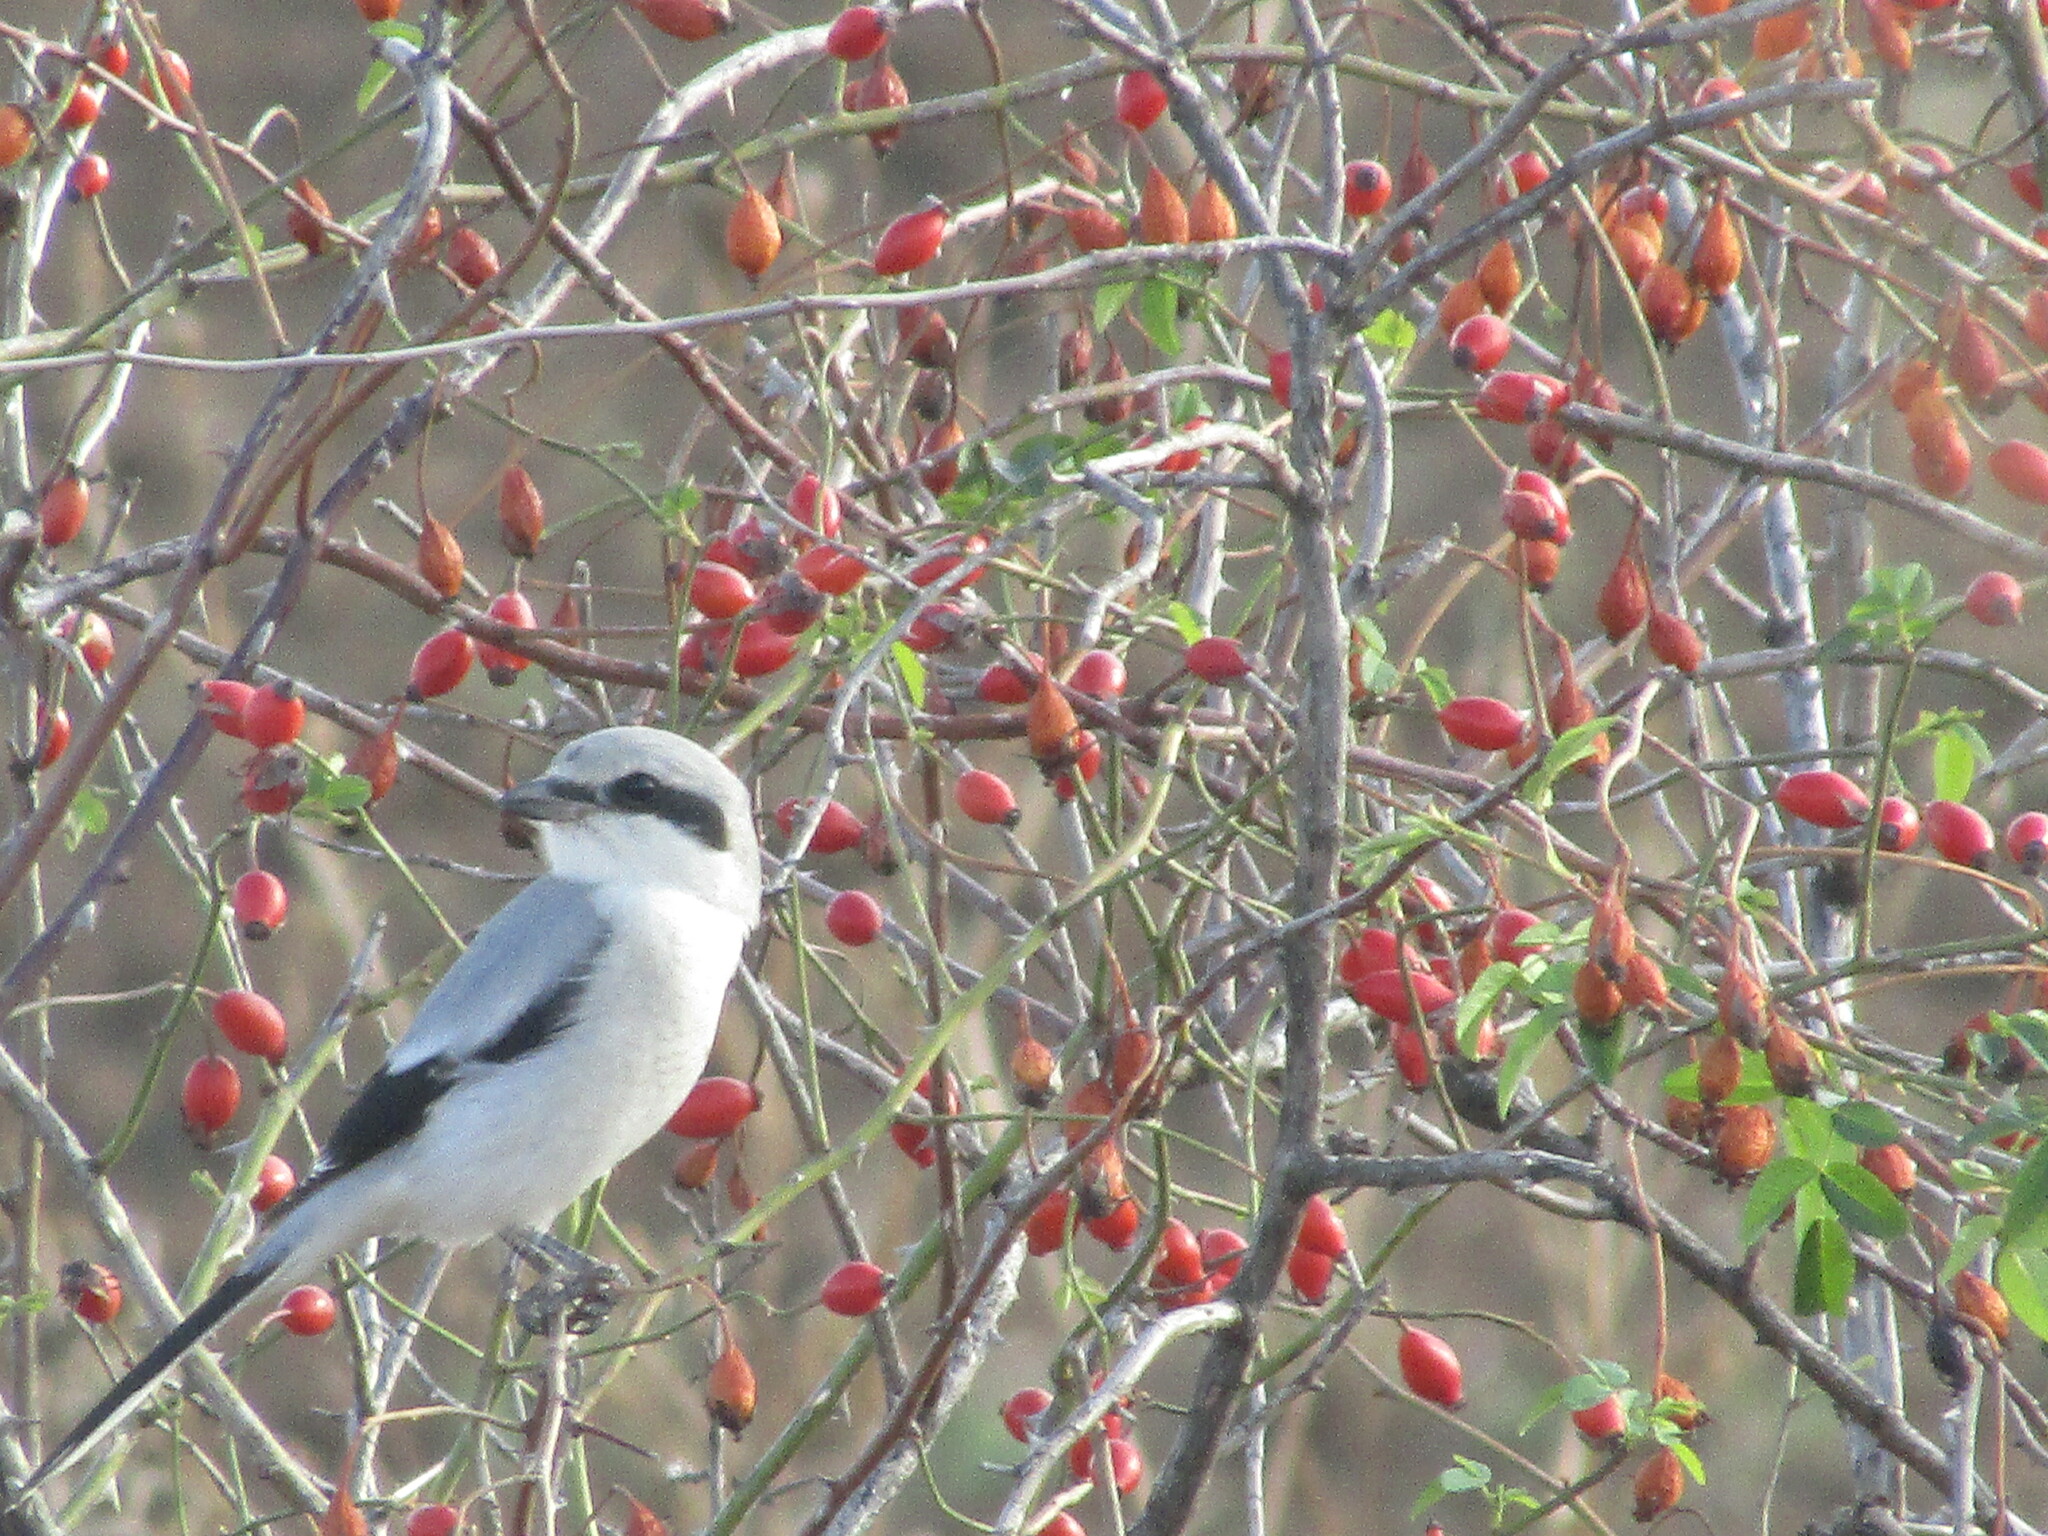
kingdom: Animalia
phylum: Chordata
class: Aves
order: Passeriformes
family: Laniidae
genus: Lanius
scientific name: Lanius excubitor
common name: Great grey shrike
